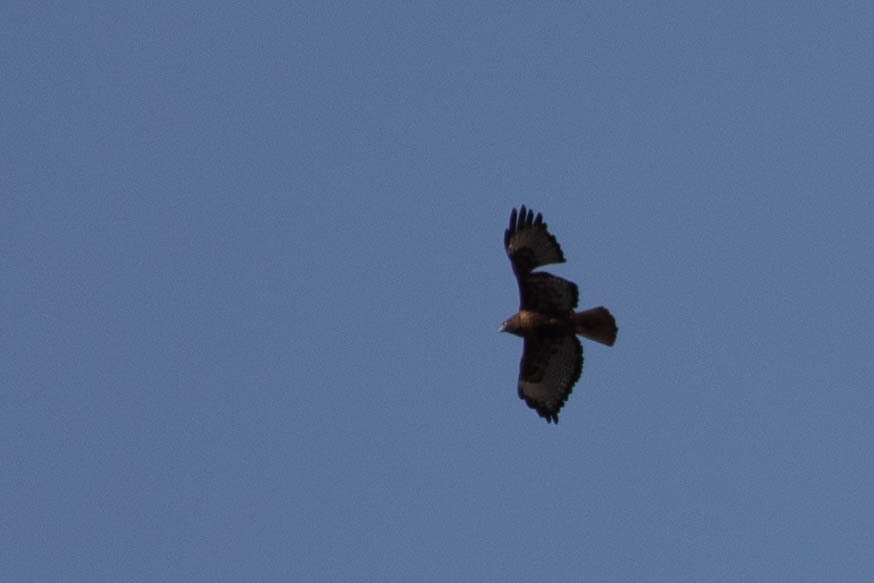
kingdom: Animalia
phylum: Chordata
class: Aves
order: Accipitriformes
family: Accipitridae
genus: Buteo
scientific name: Buteo jamaicensis
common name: Red-tailed hawk
